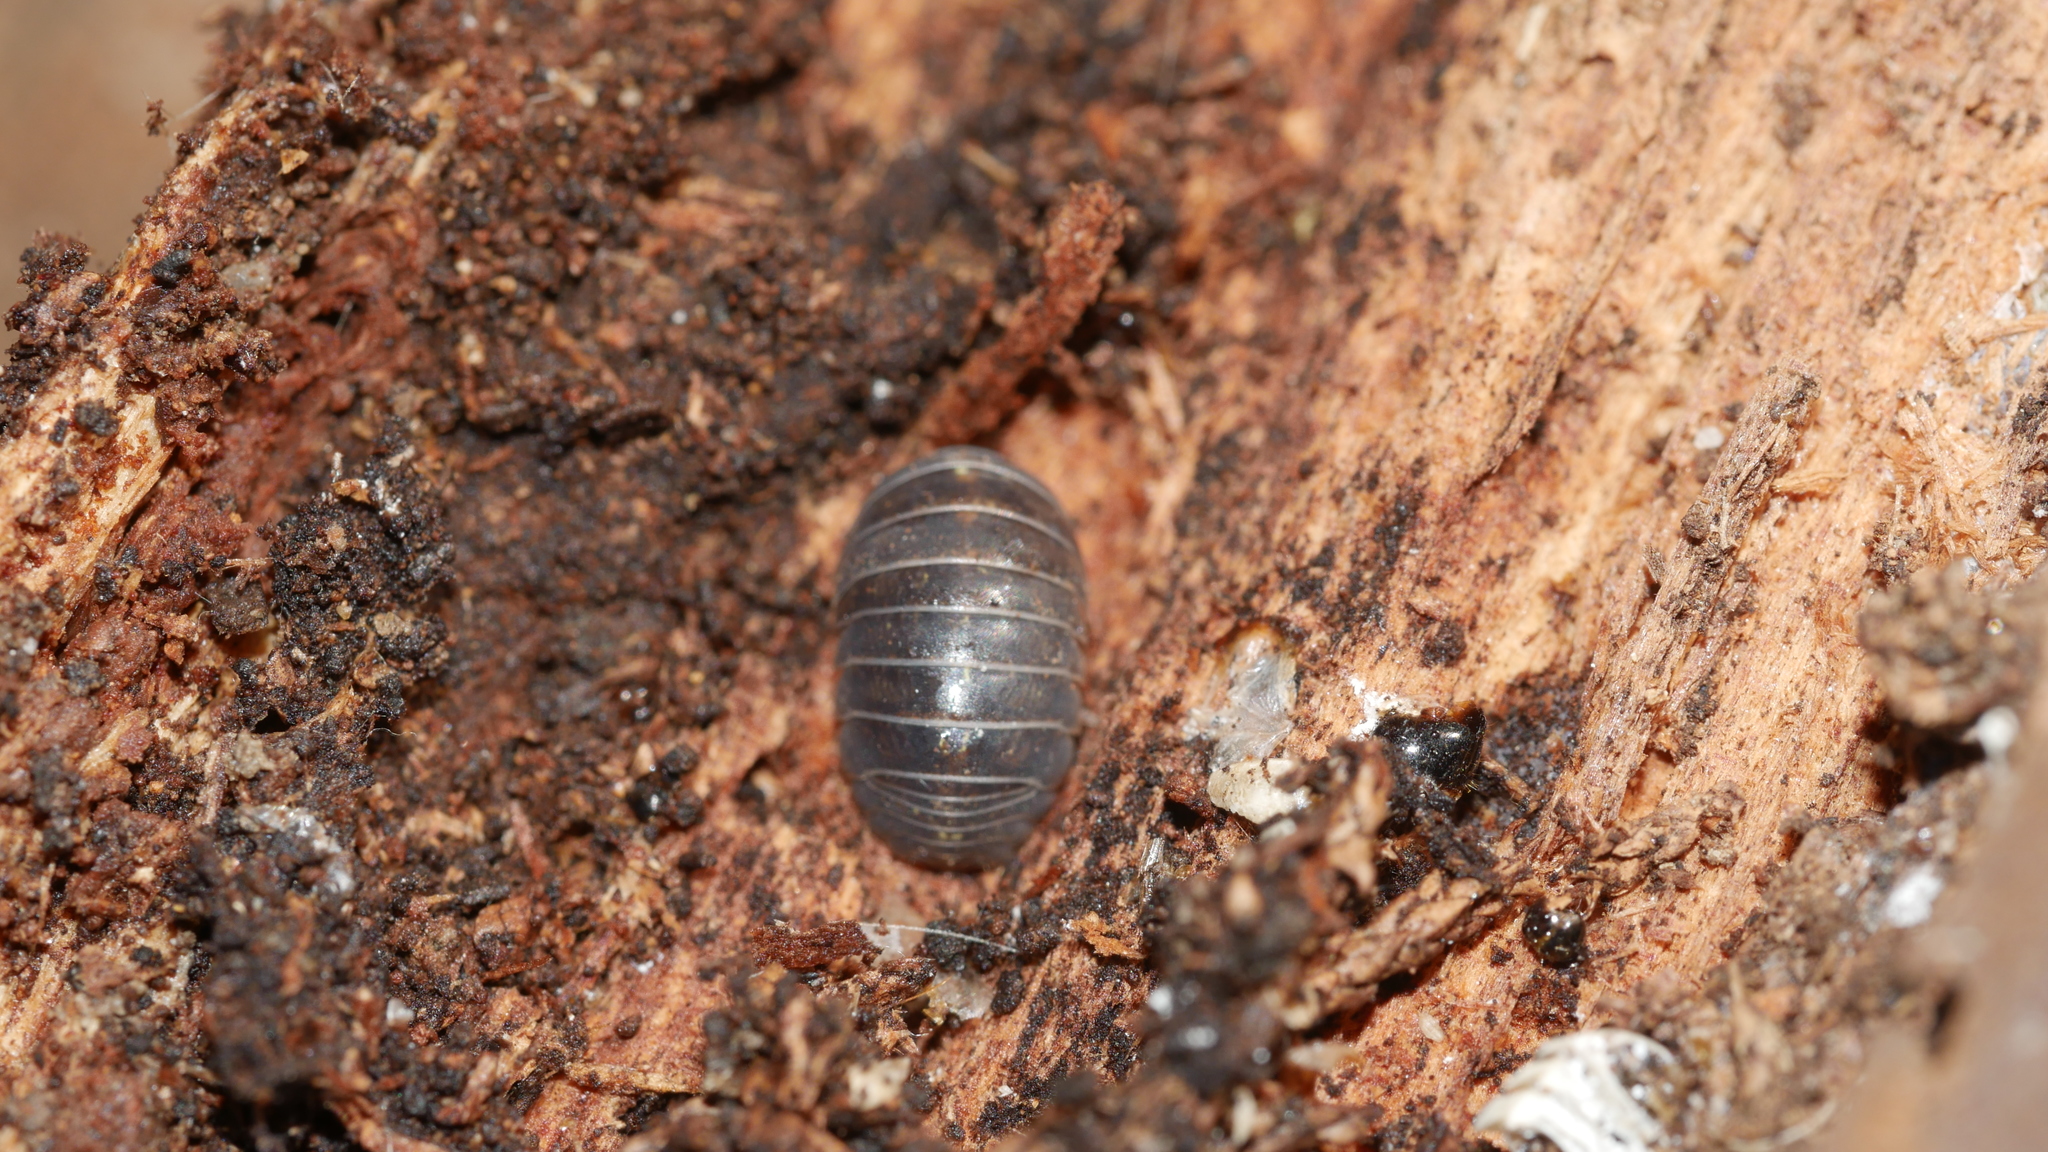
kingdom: Animalia
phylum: Arthropoda
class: Malacostraca
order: Isopoda
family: Armadillidiidae
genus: Armadillidium
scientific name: Armadillidium vulgare
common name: Common pill woodlouse
